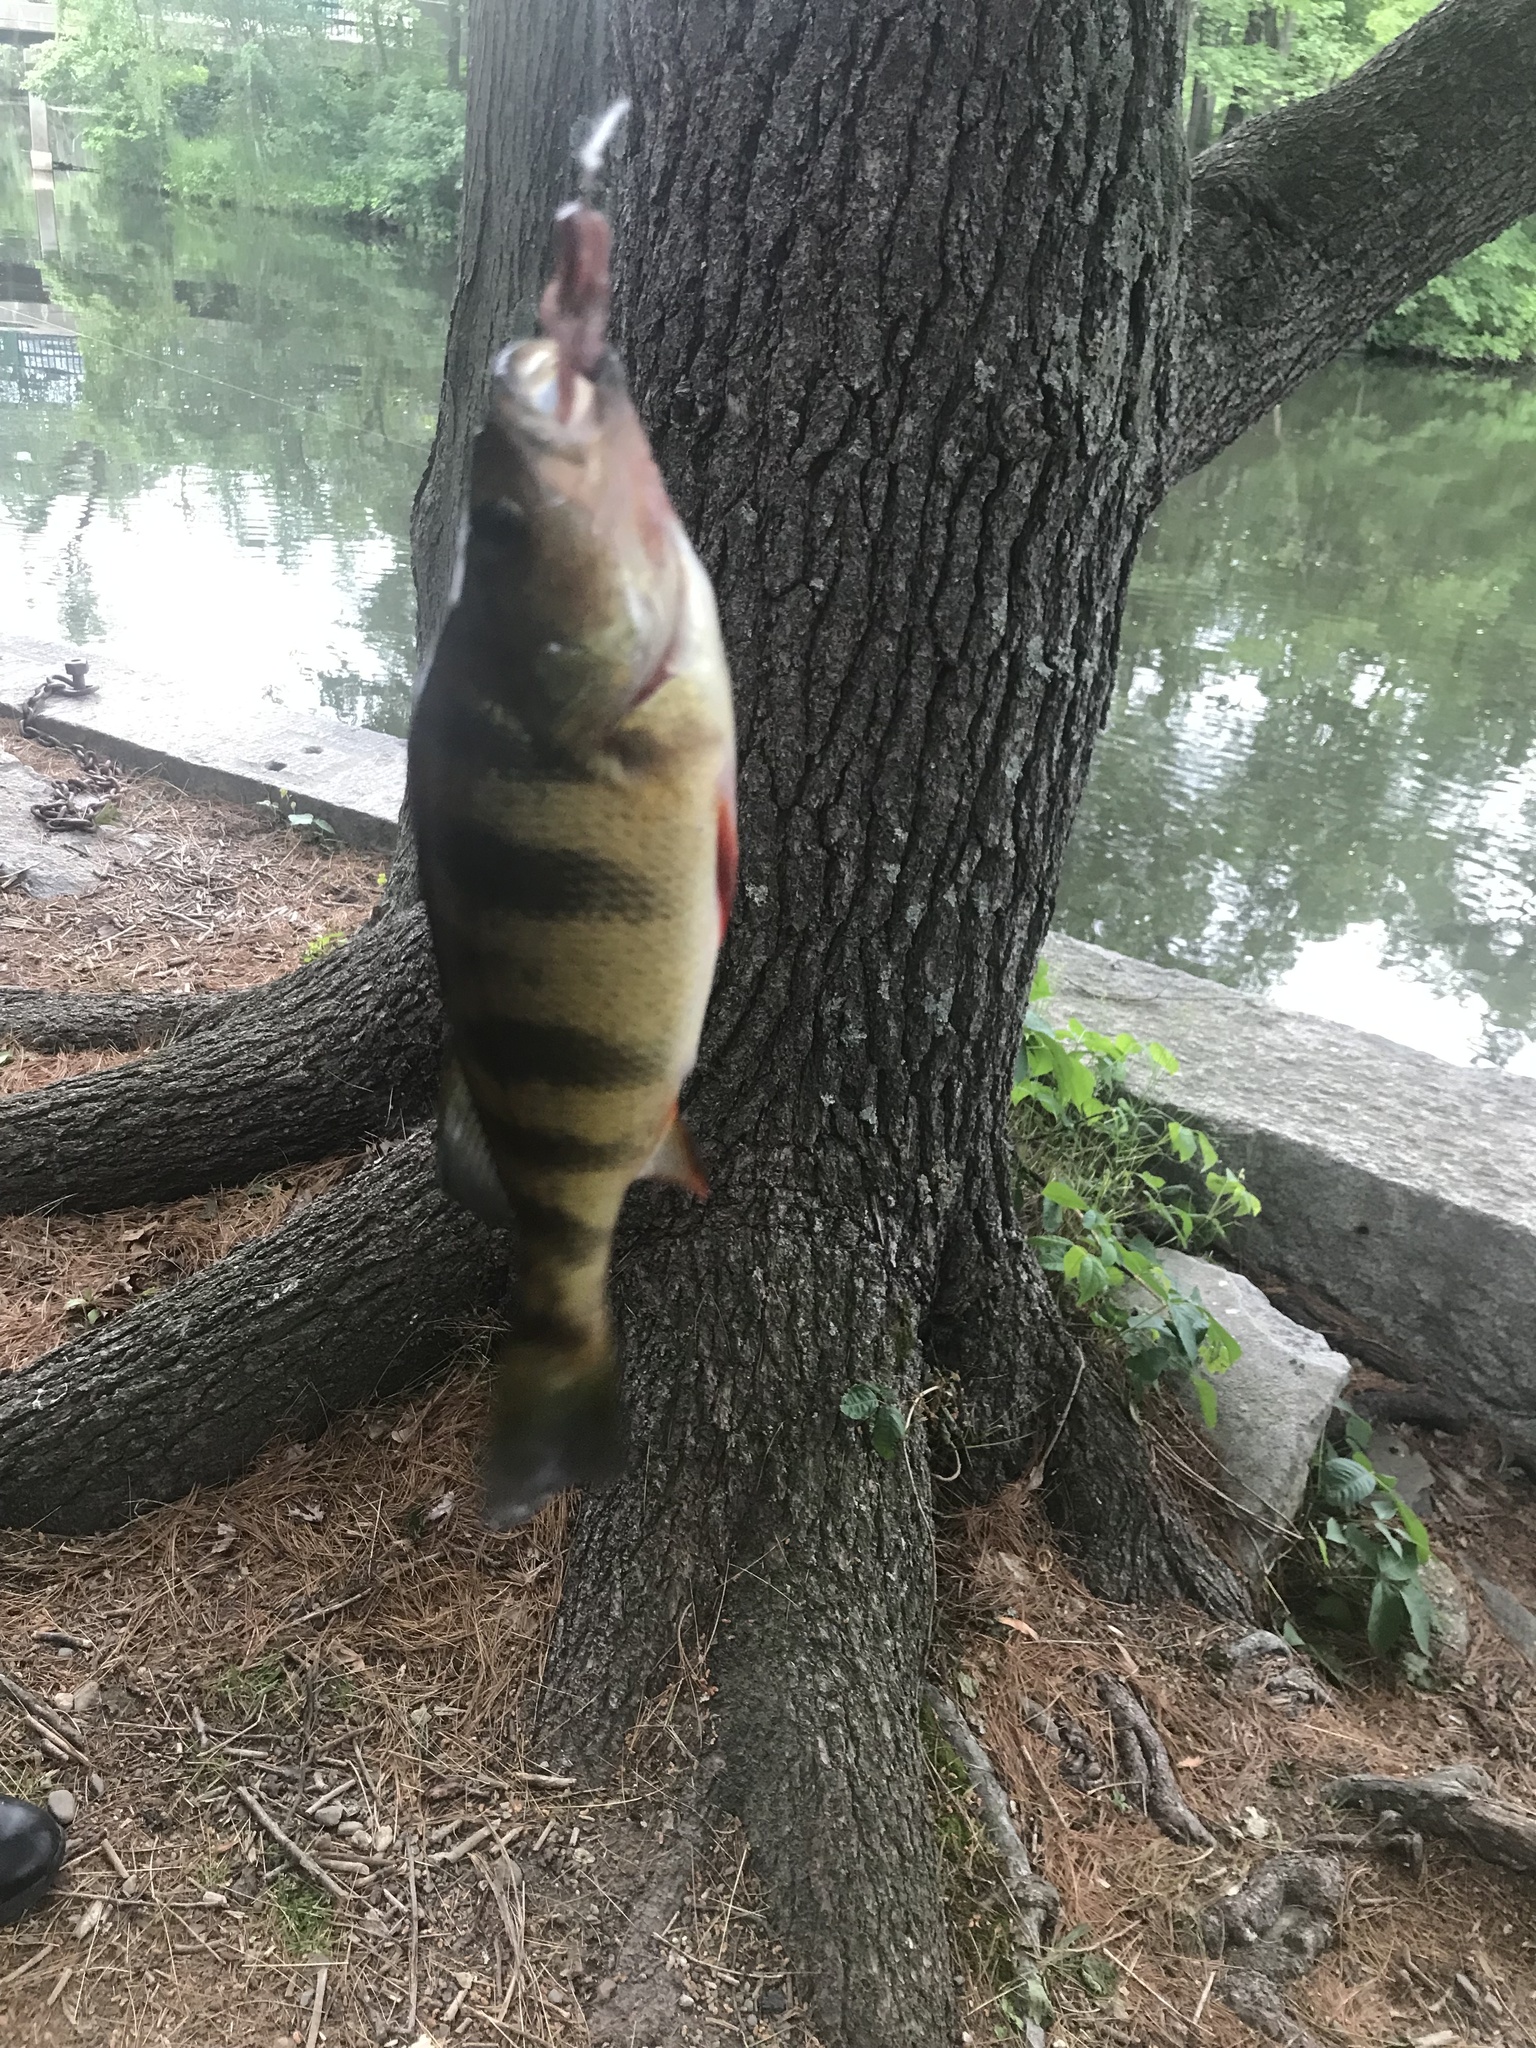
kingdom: Animalia
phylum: Chordata
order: Perciformes
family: Percidae
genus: Perca
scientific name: Perca flavescens
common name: Yellow perch
